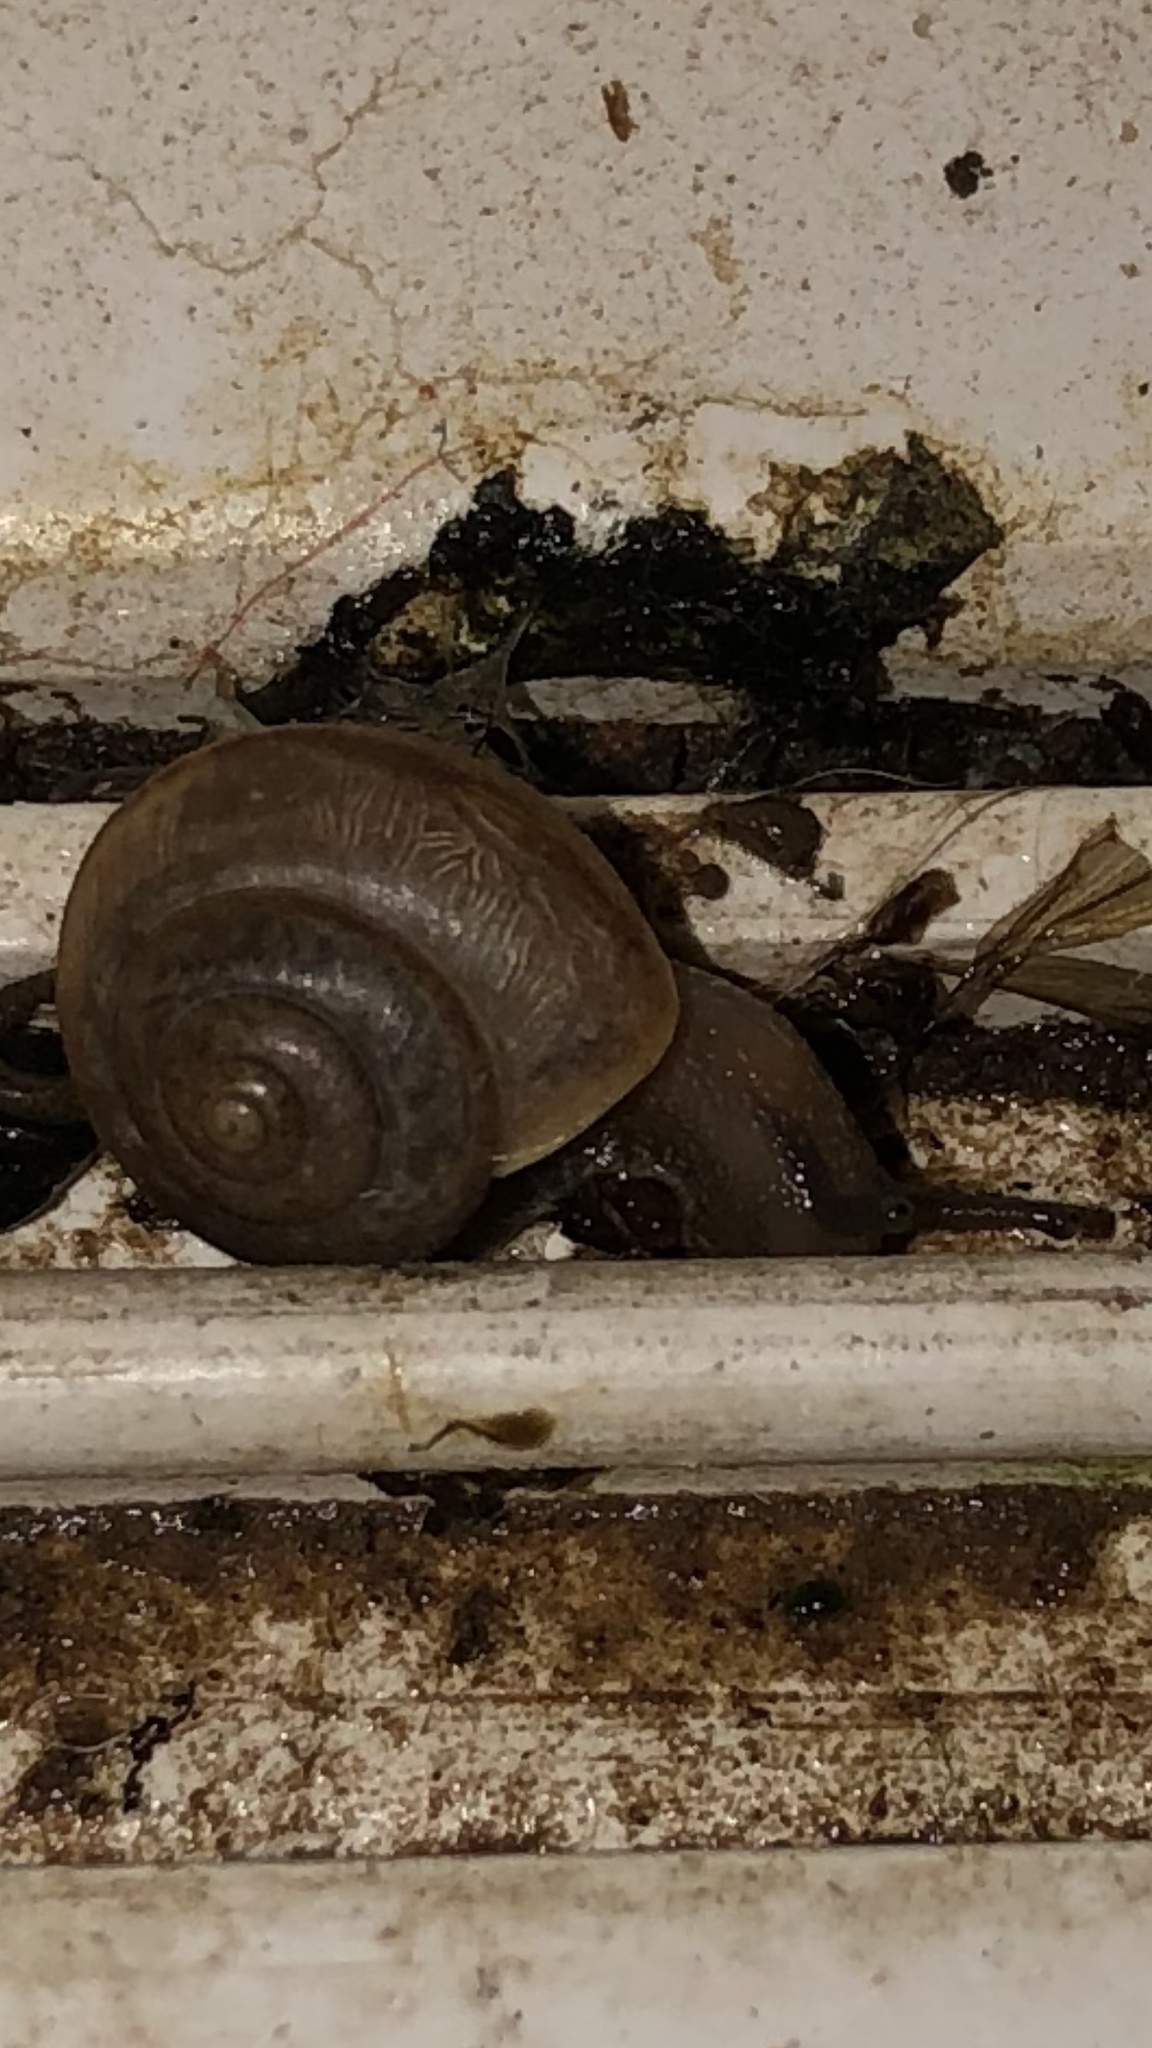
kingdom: Animalia
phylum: Mollusca
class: Gastropoda
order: Stylommatophora
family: Camaenidae
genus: Bradybaena
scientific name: Bradybaena similaris
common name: Asian trampsnail
